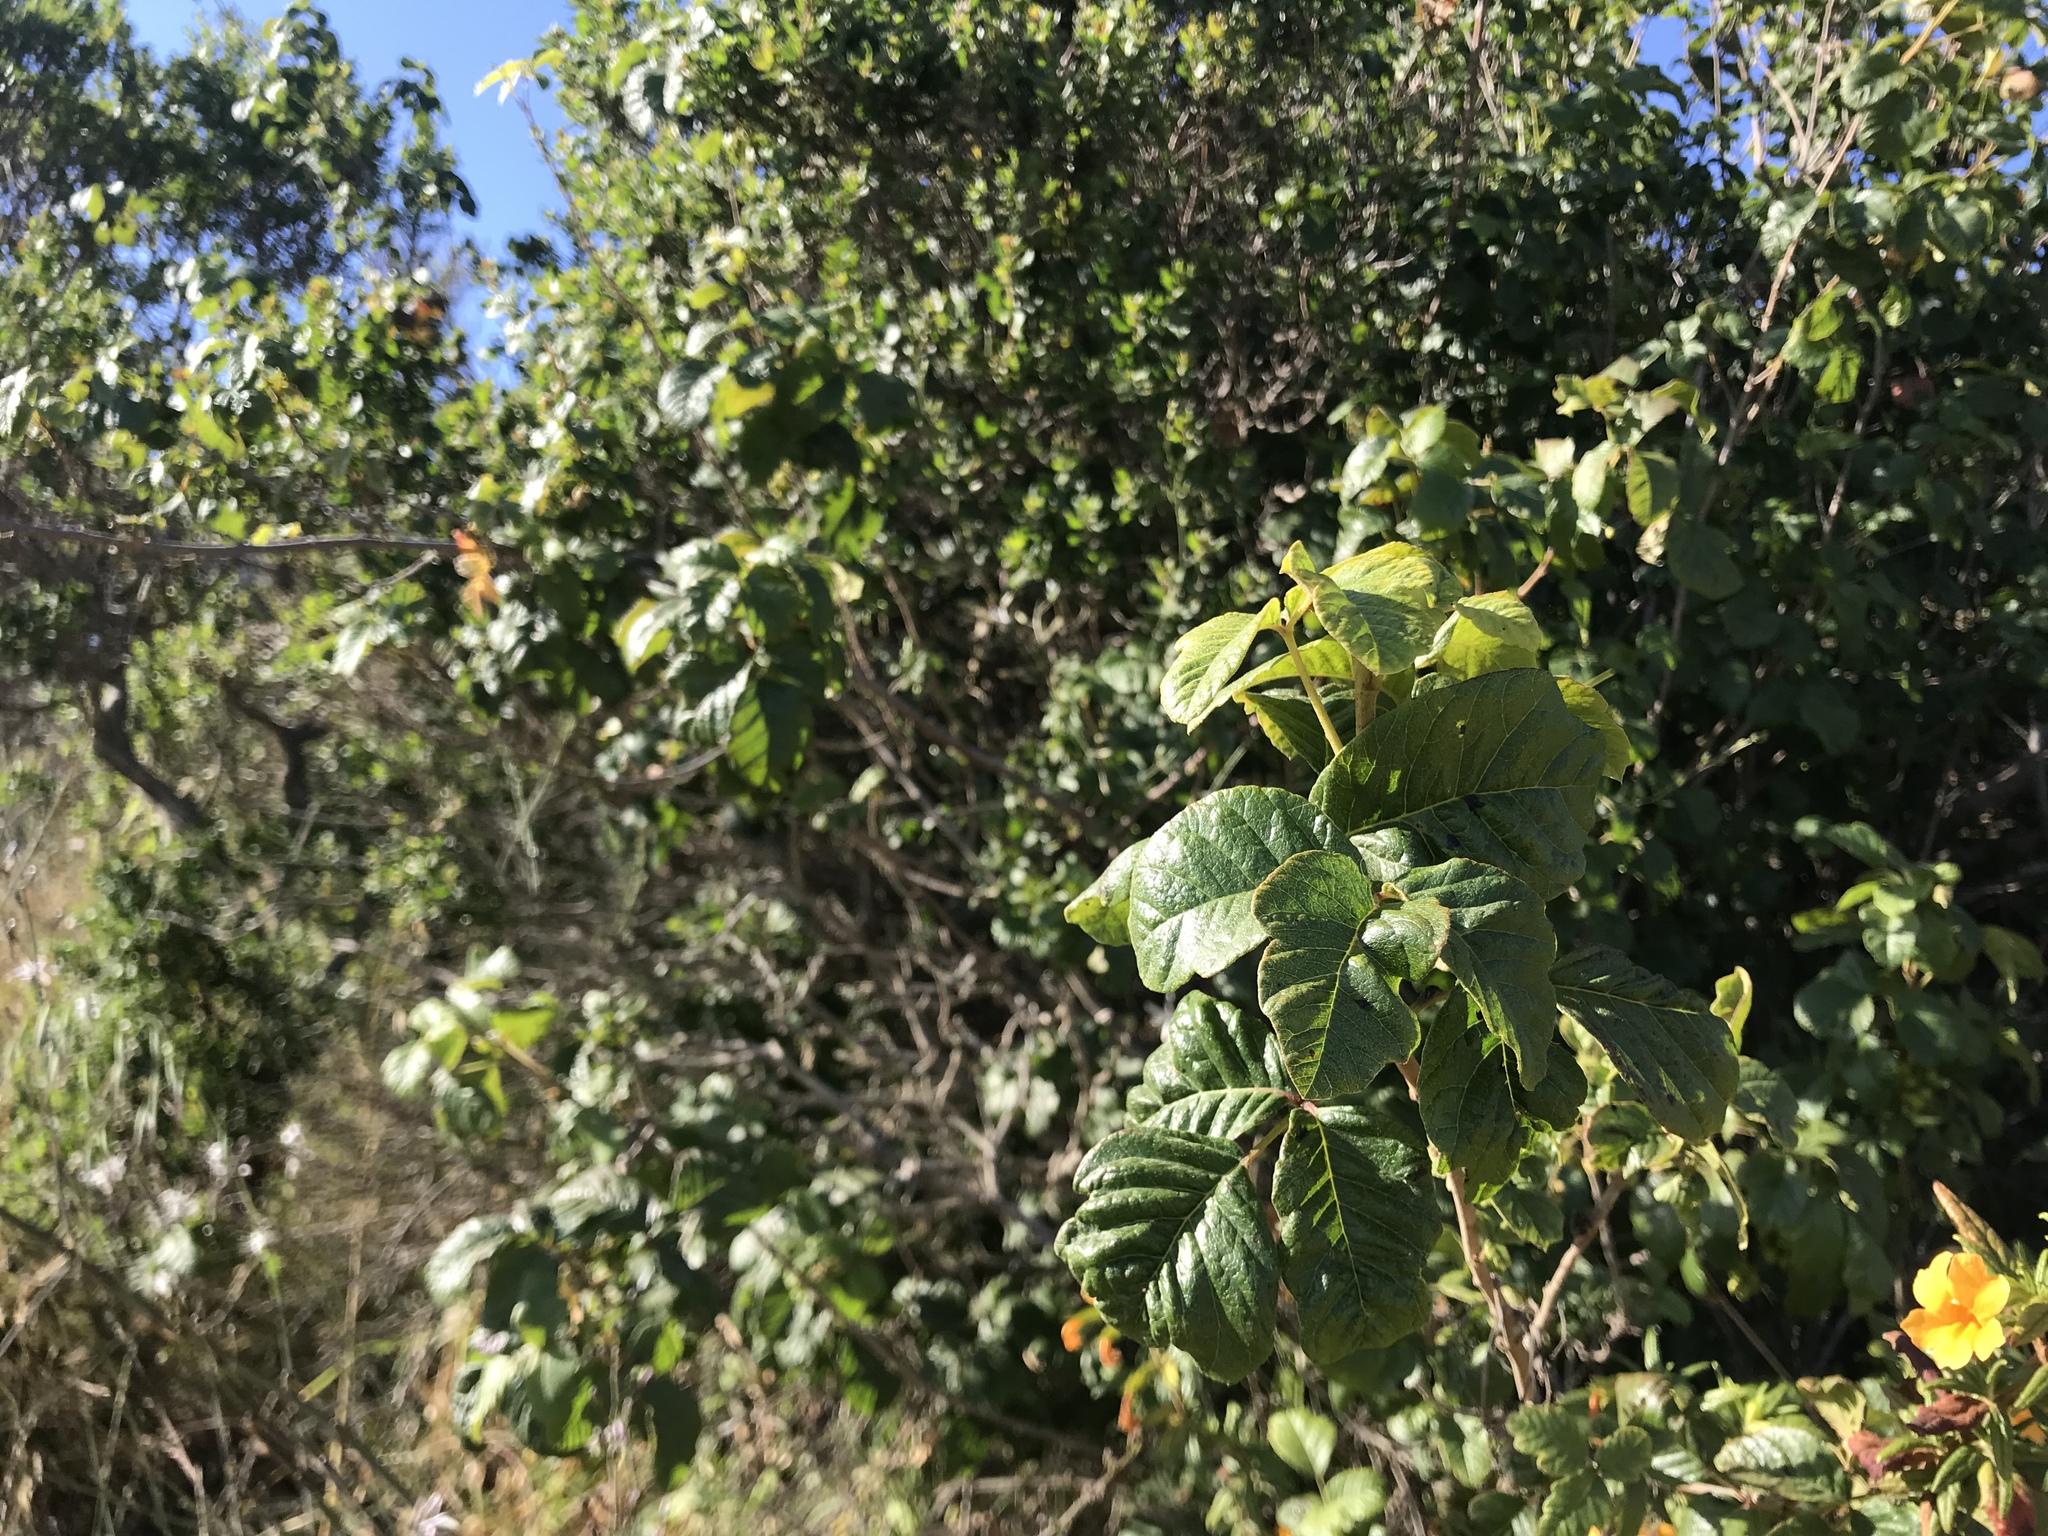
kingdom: Plantae
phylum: Tracheophyta
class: Magnoliopsida
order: Sapindales
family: Anacardiaceae
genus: Toxicodendron
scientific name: Toxicodendron diversilobum
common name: Pacific poison-oak
